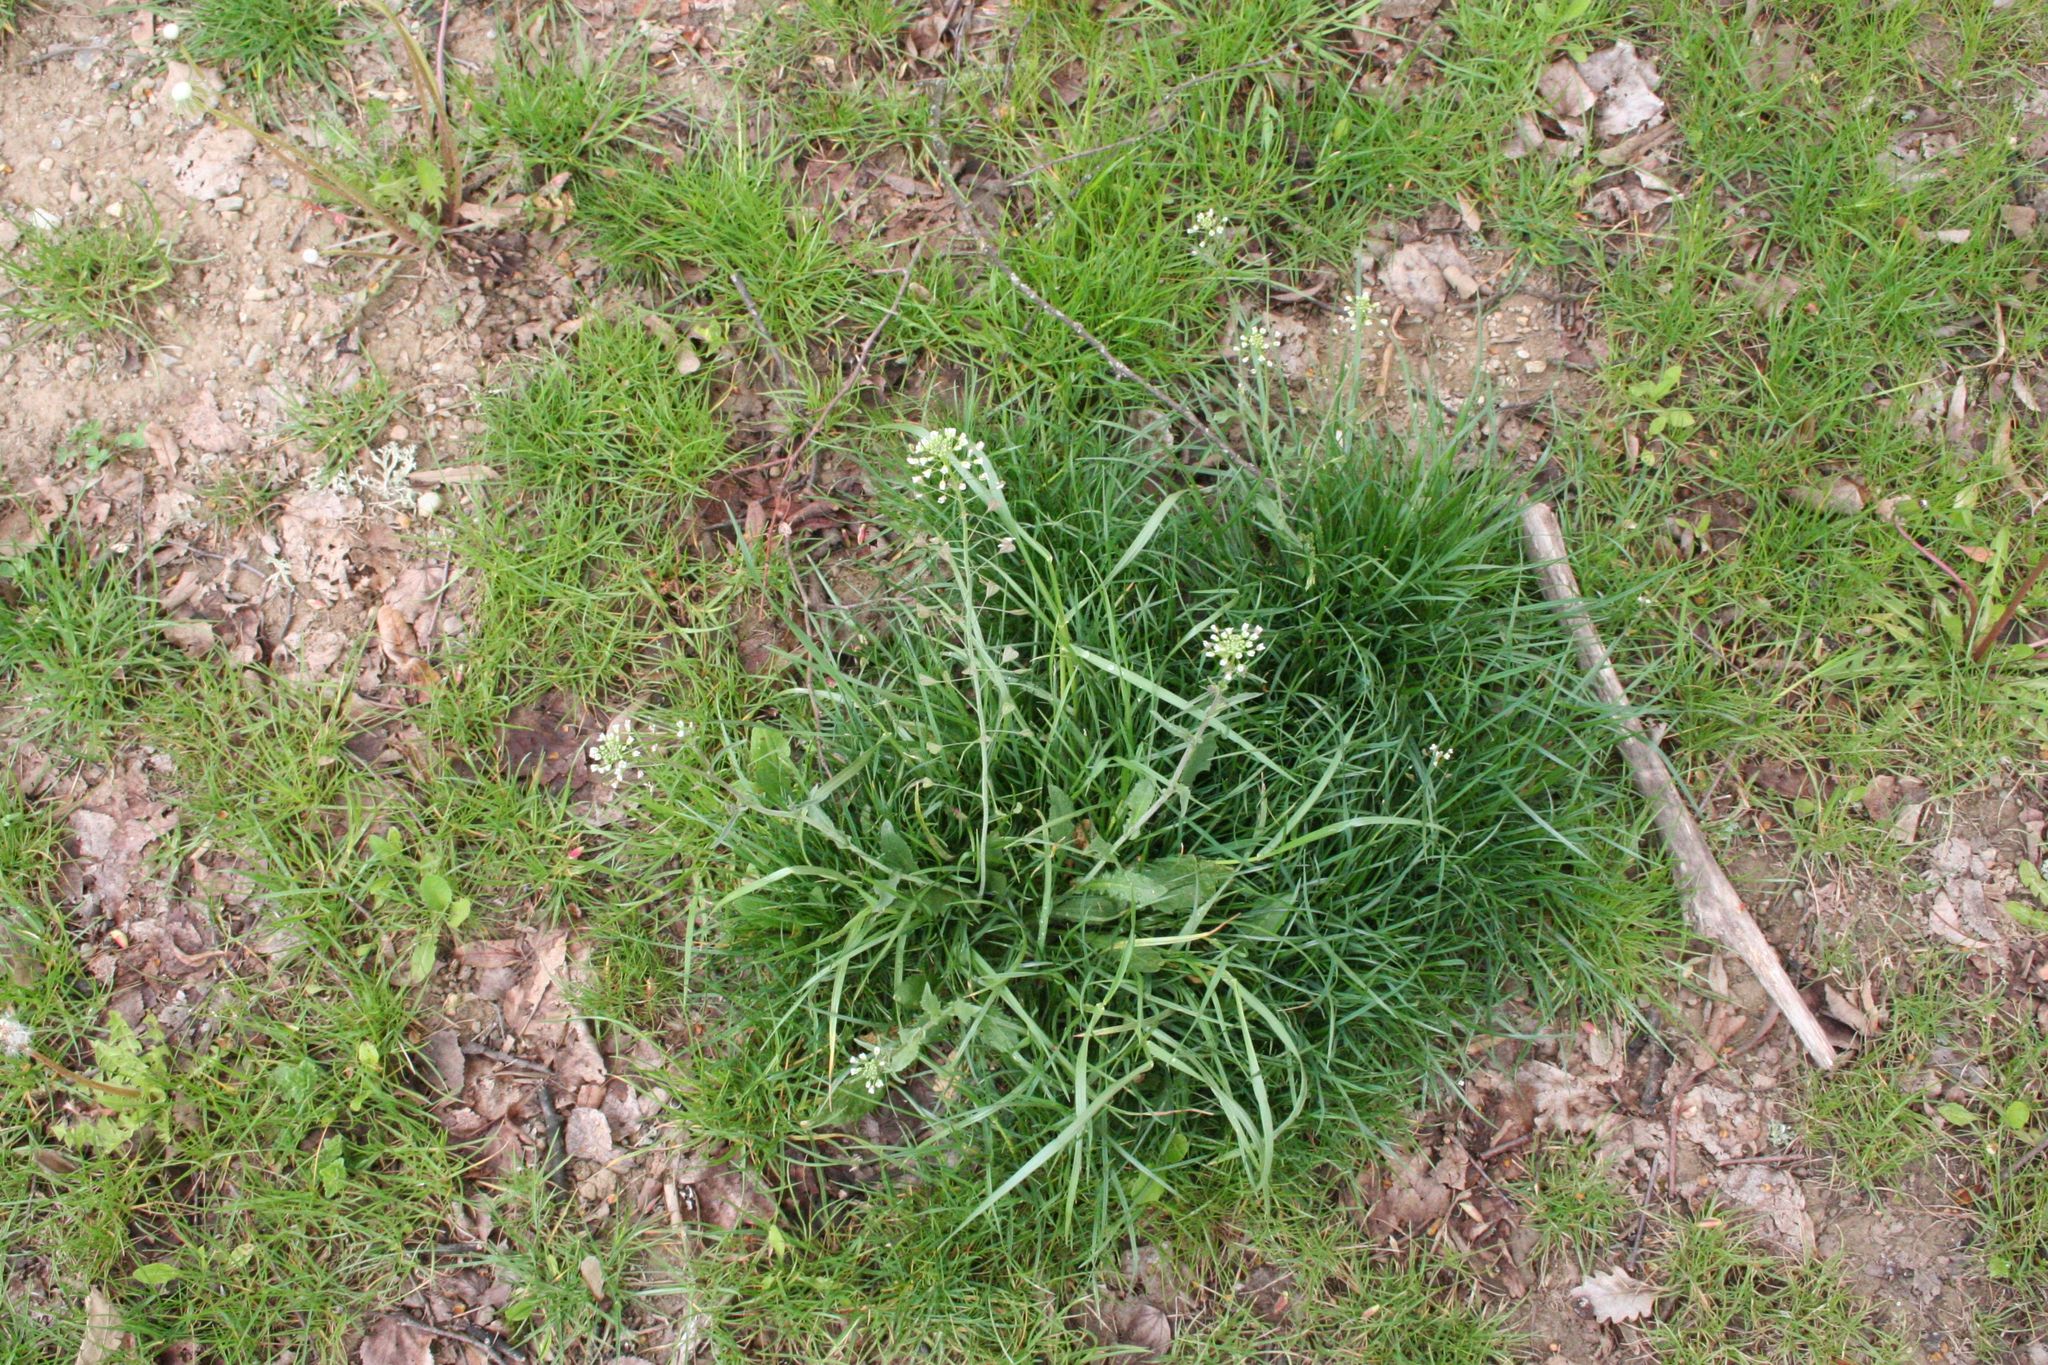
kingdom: Plantae
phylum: Tracheophyta
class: Magnoliopsida
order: Brassicales
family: Brassicaceae
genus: Capsella
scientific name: Capsella bursa-pastoris
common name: Shepherd's purse
